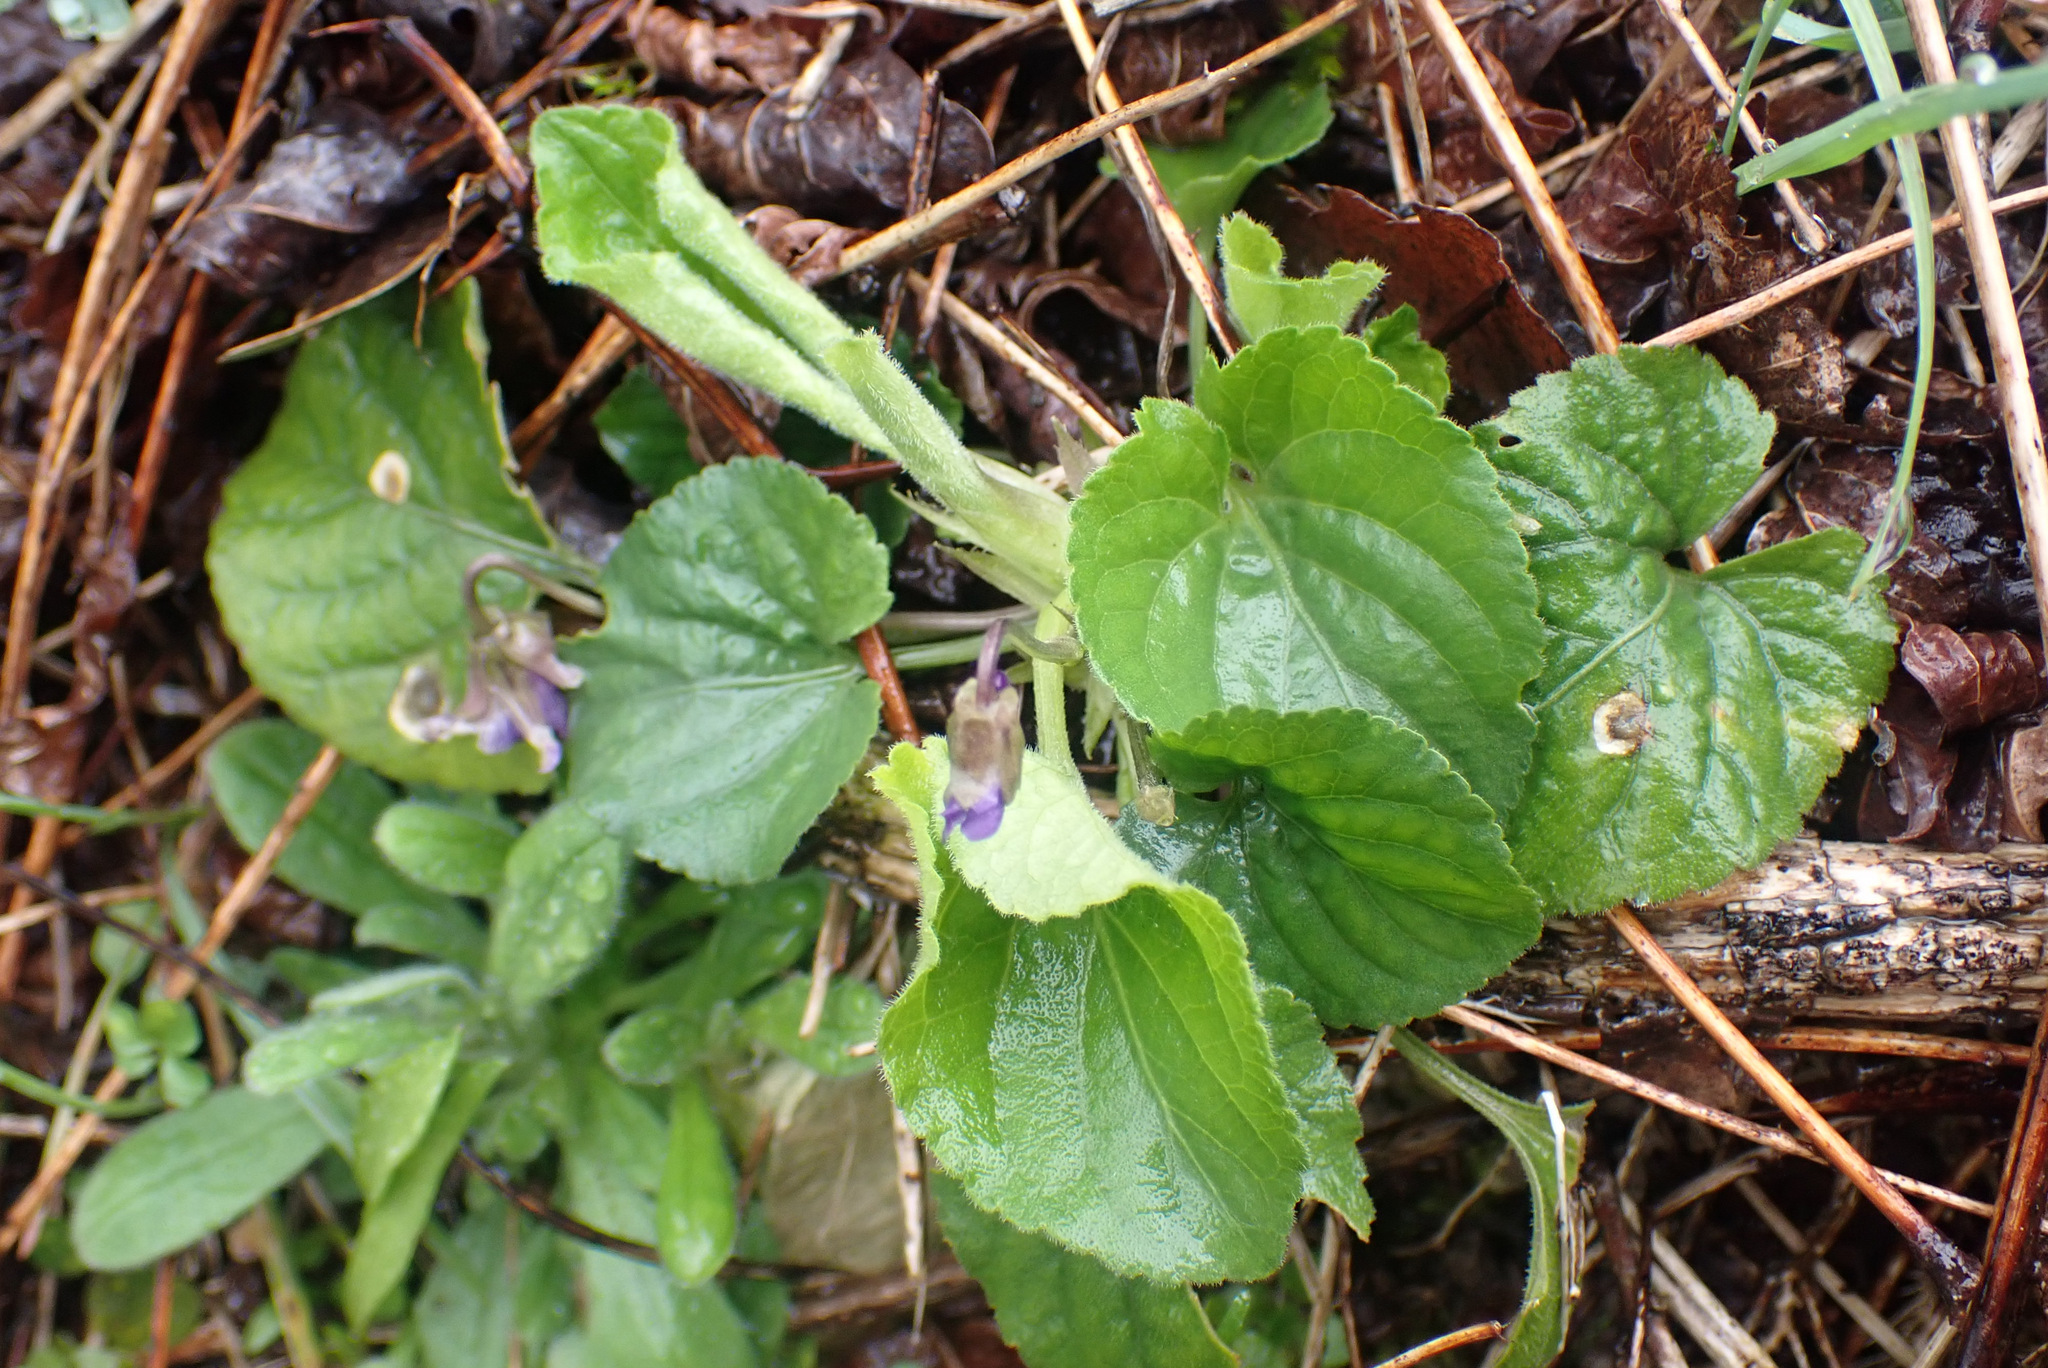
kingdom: Plantae
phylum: Tracheophyta
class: Magnoliopsida
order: Malpighiales
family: Violaceae
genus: Viola
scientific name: Viola odorata
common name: Sweet violet
